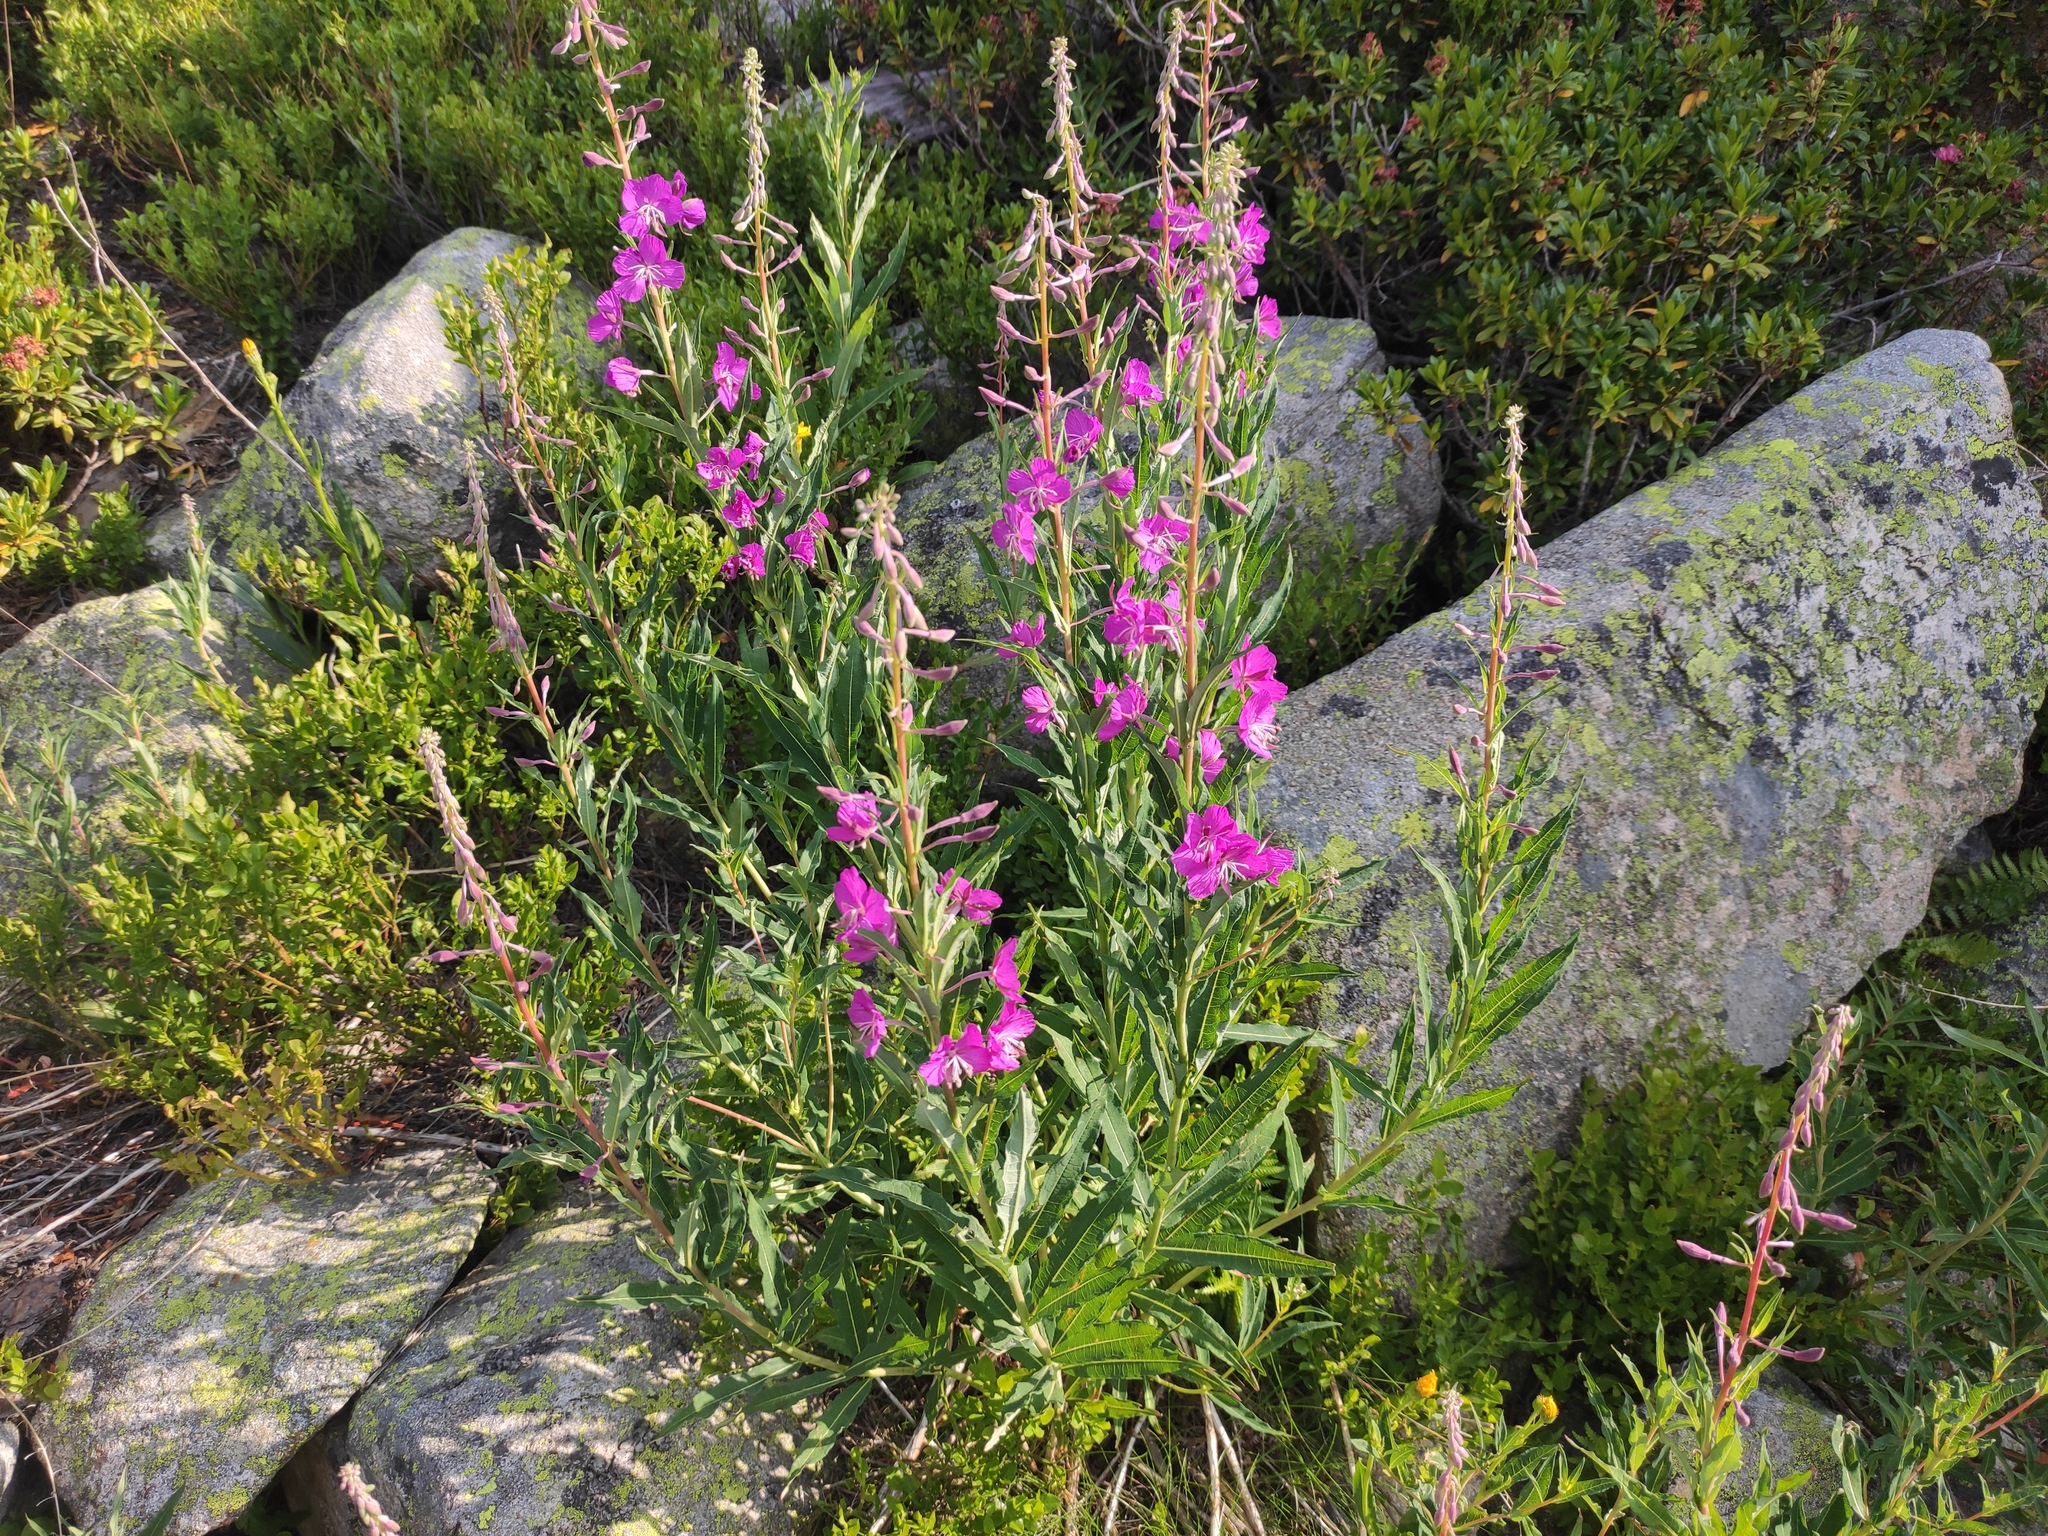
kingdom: Plantae
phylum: Tracheophyta
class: Magnoliopsida
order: Myrtales
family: Onagraceae
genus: Chamaenerion
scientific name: Chamaenerion angustifolium
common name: Fireweed
